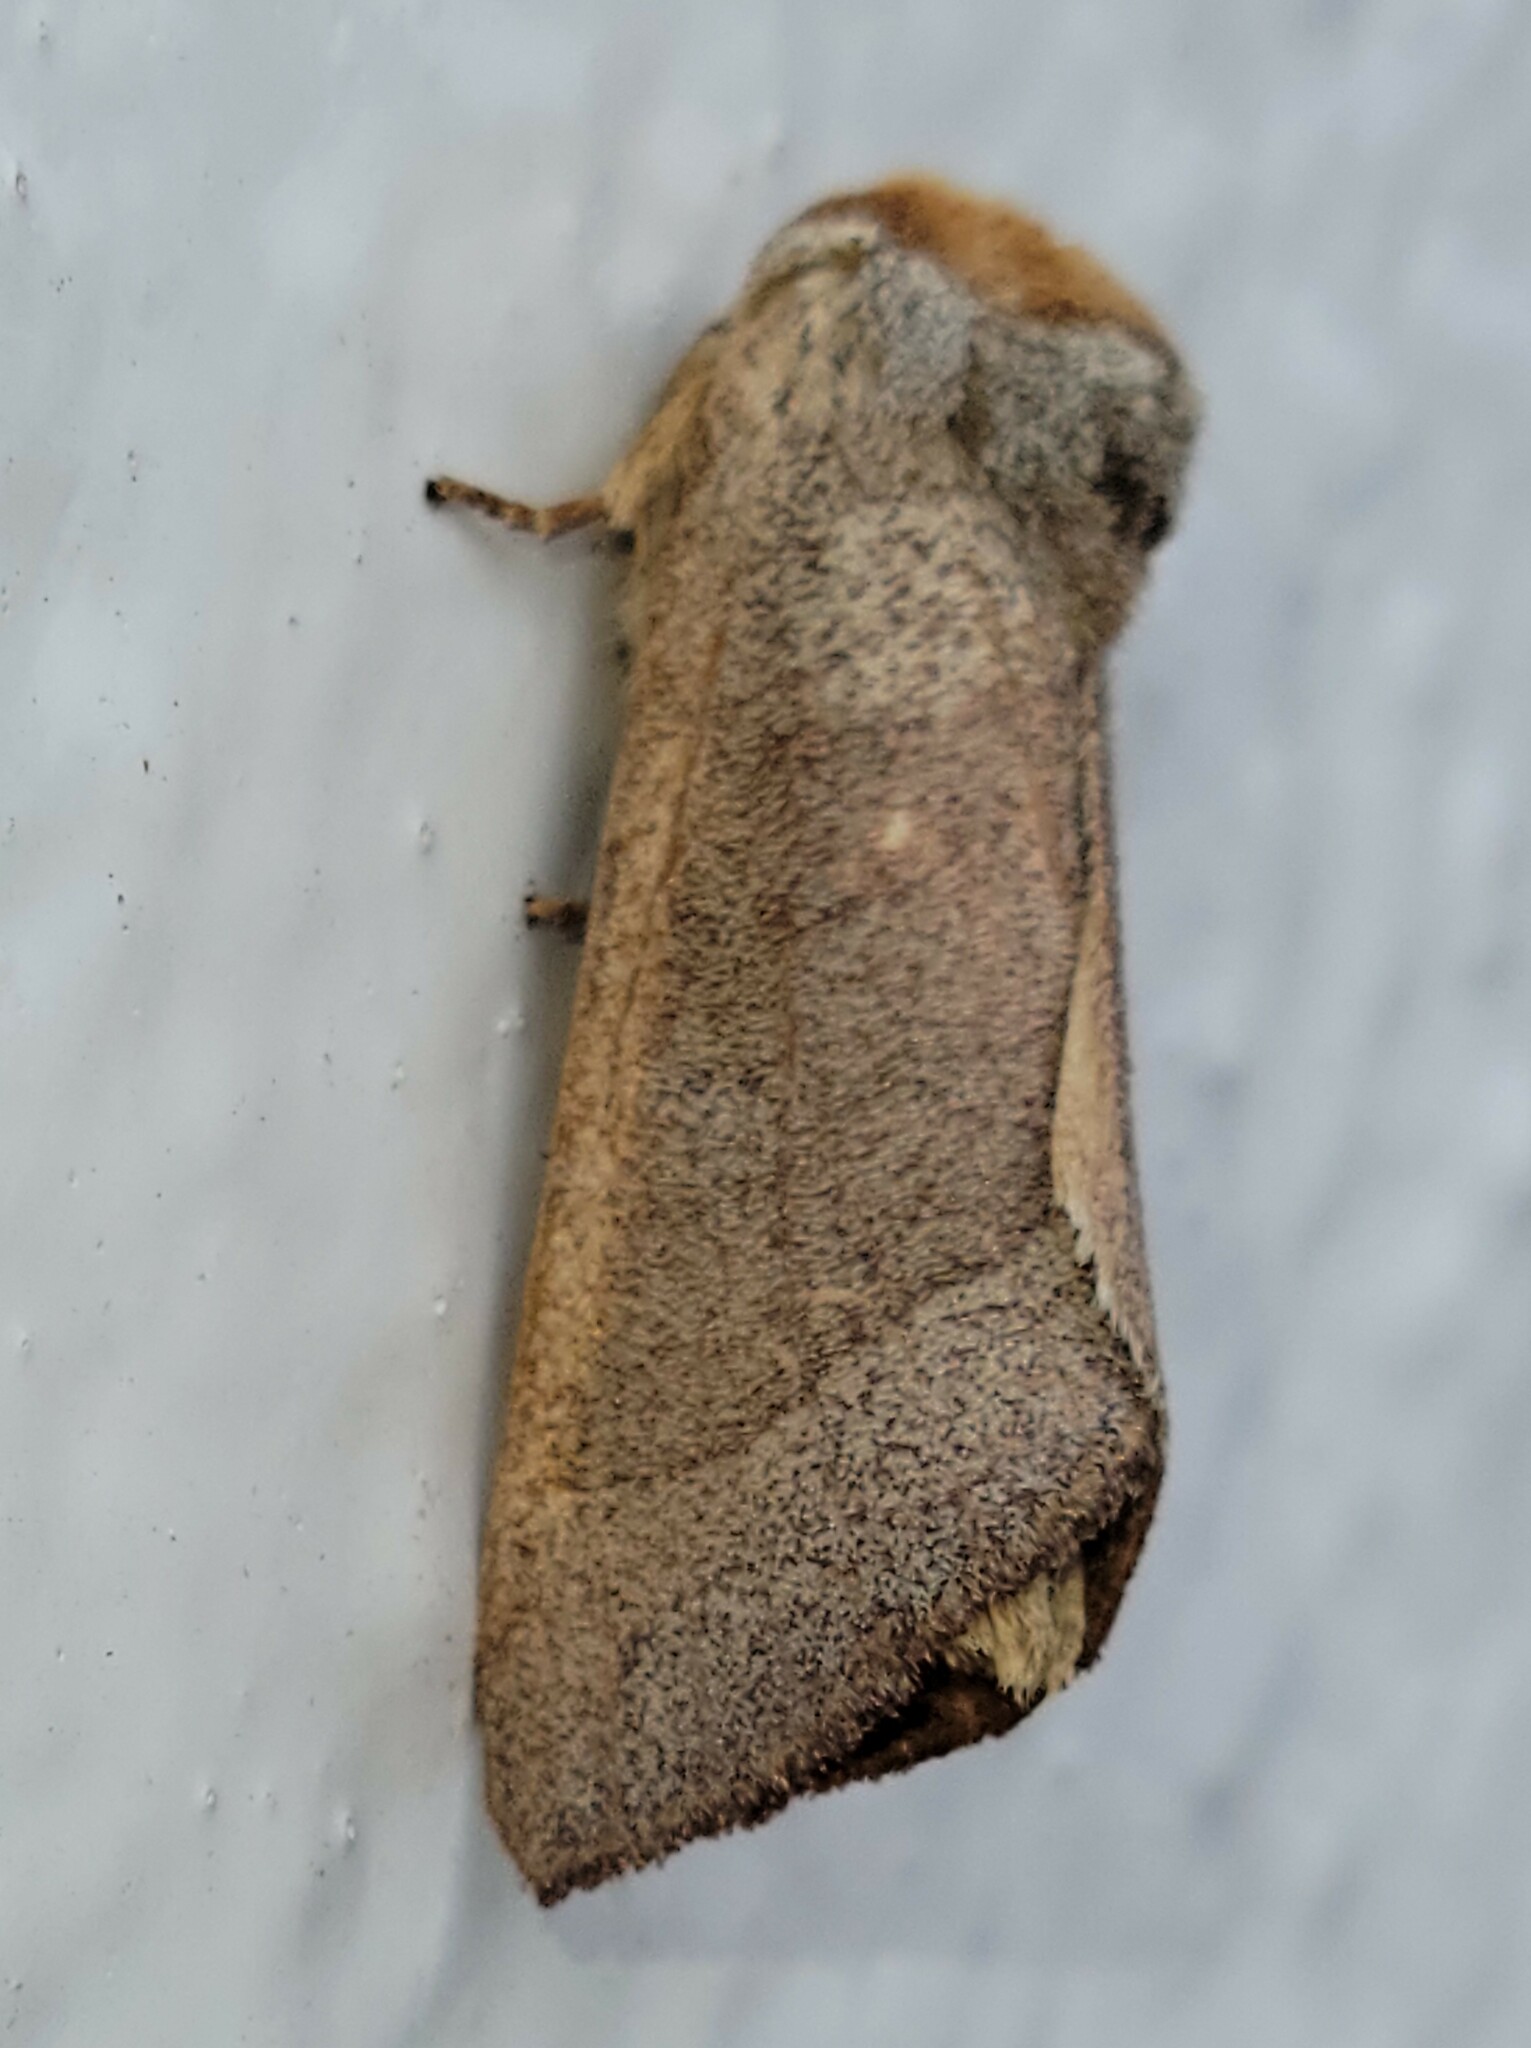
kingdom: Animalia
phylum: Arthropoda
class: Insecta
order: Lepidoptera
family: Notodontidae
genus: Datana
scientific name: Datana diffidens
